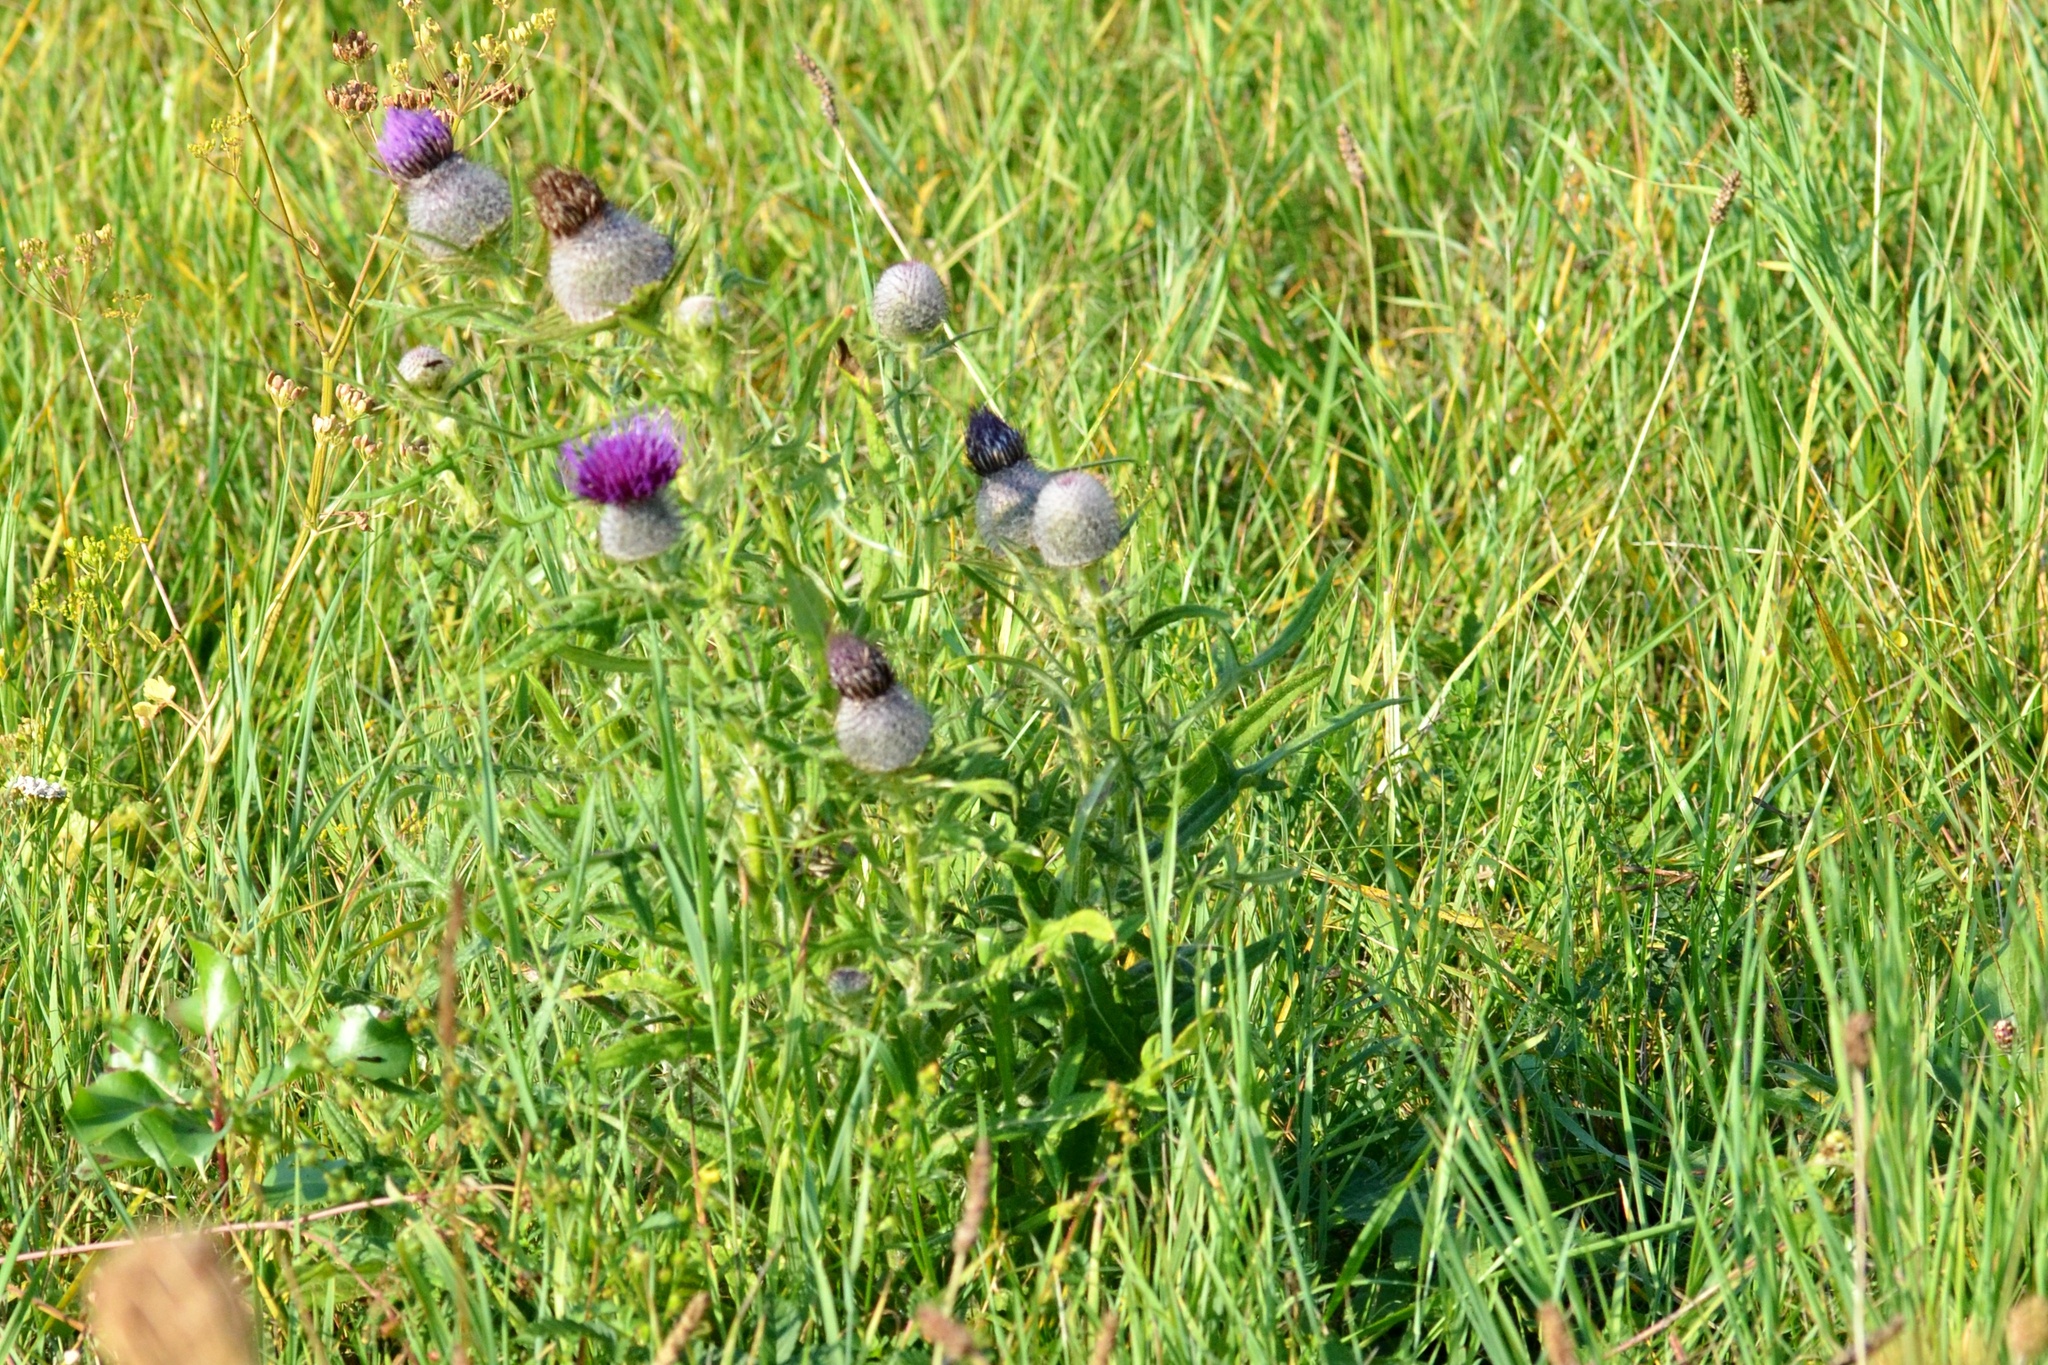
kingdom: Plantae
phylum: Tracheophyta
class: Magnoliopsida
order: Asterales
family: Asteraceae
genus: Lophiolepis
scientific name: Lophiolepis eriophora
